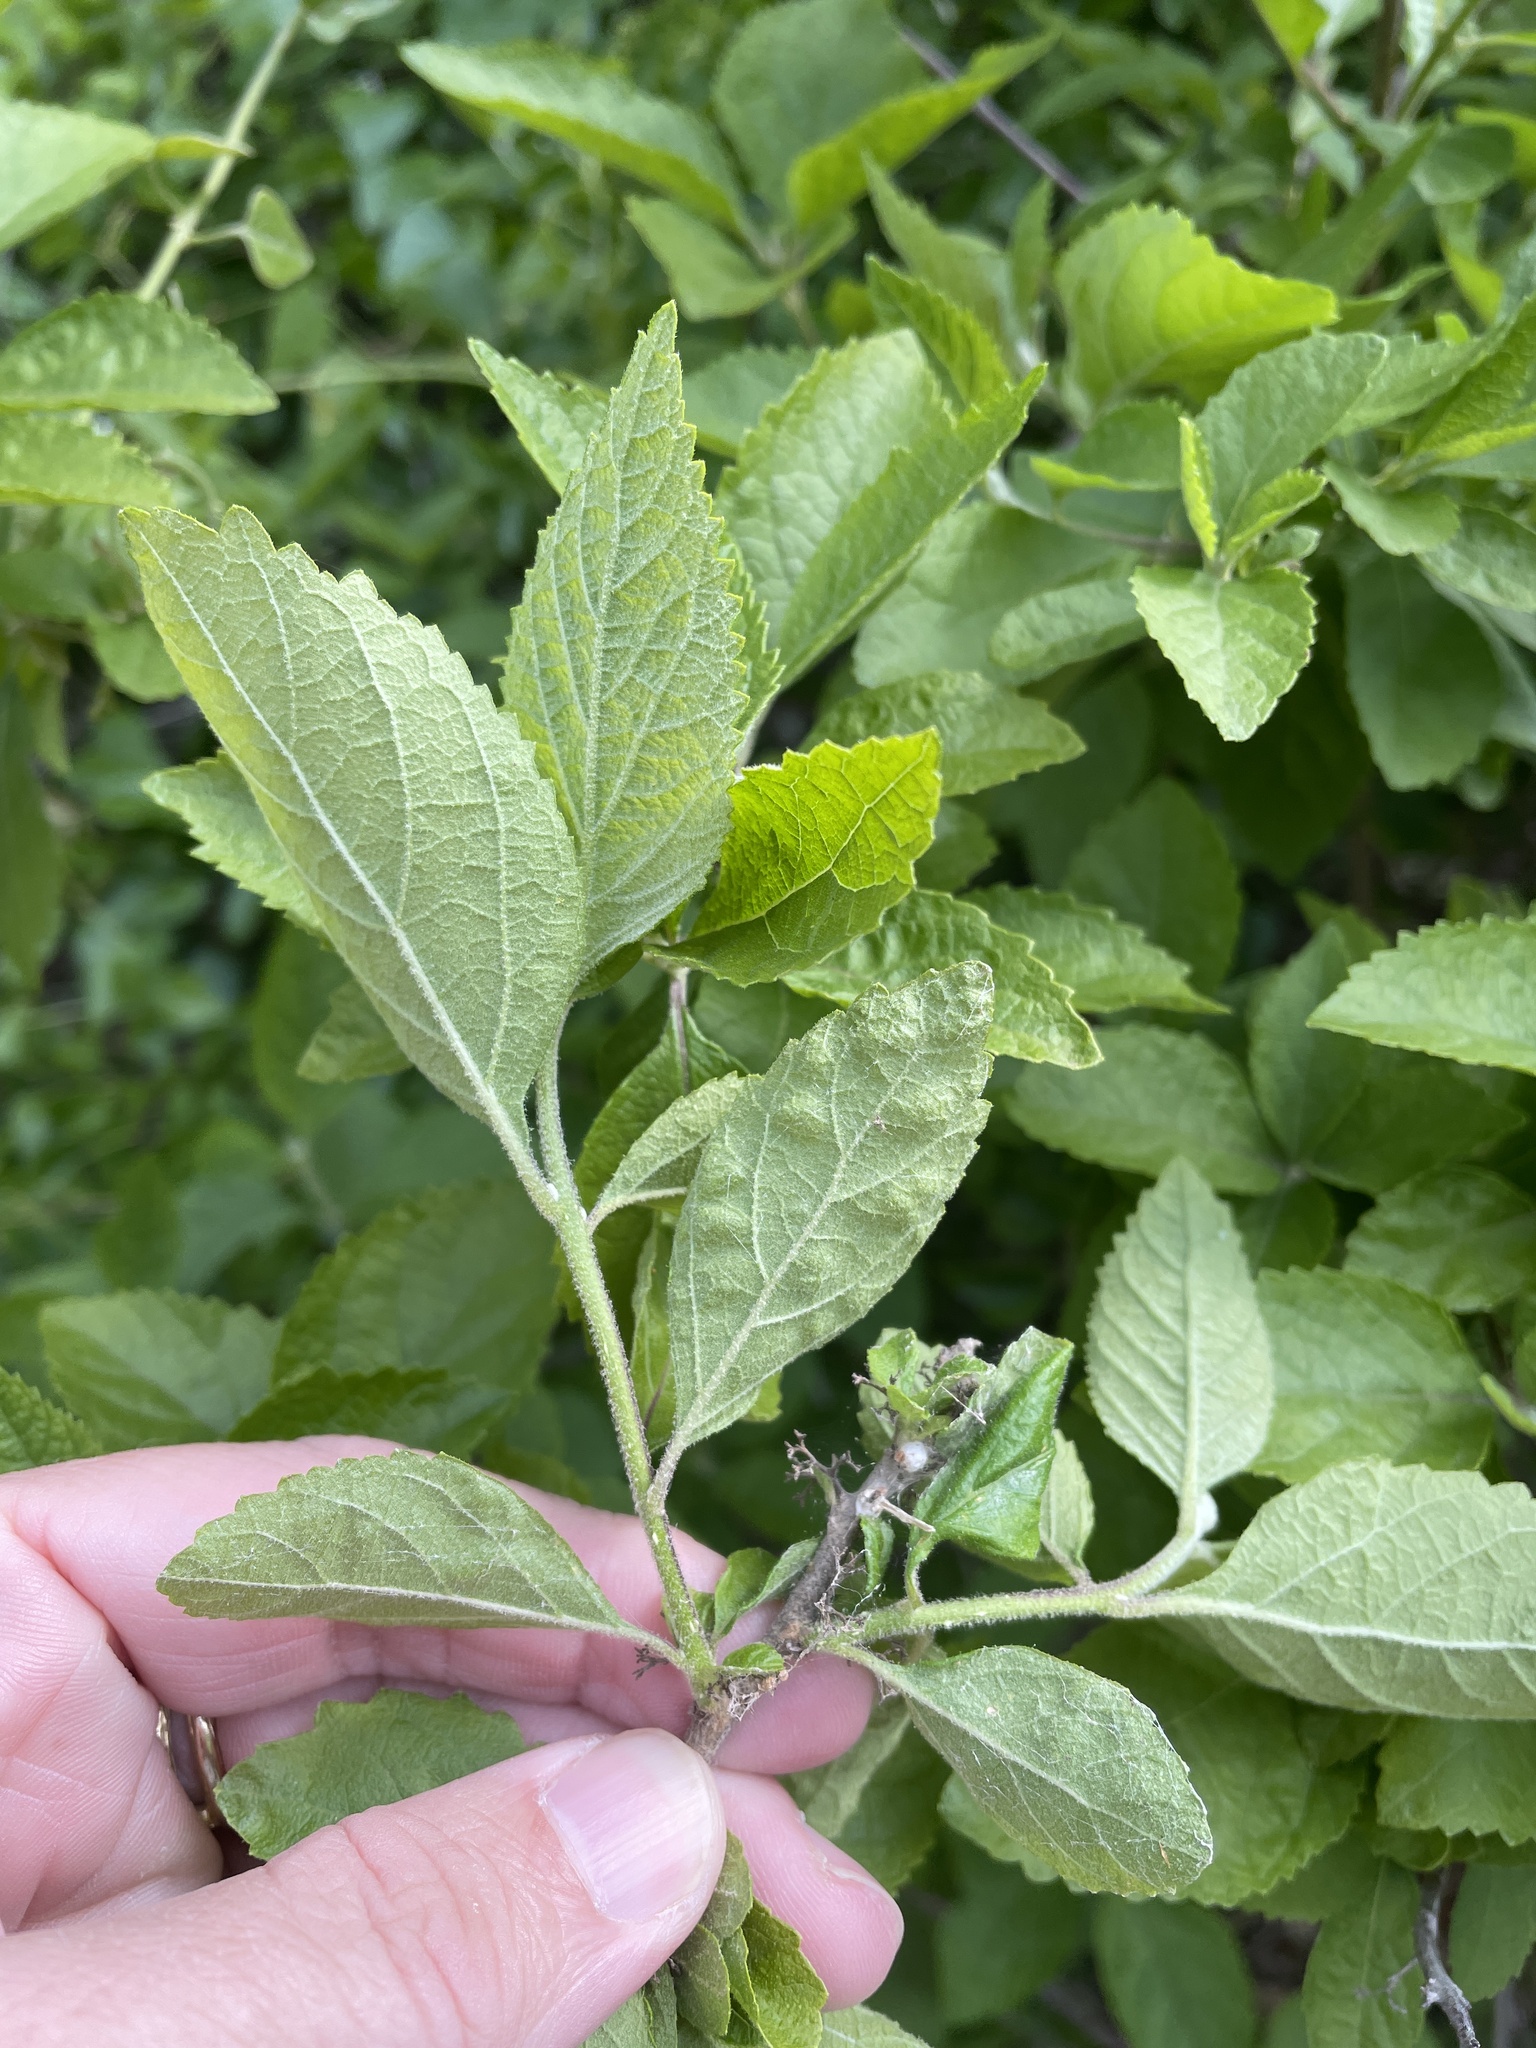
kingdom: Plantae
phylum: Tracheophyta
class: Magnoliopsida
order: Lamiales
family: Lamiaceae
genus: Callicarpa
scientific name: Callicarpa americana
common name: American beautyberry
